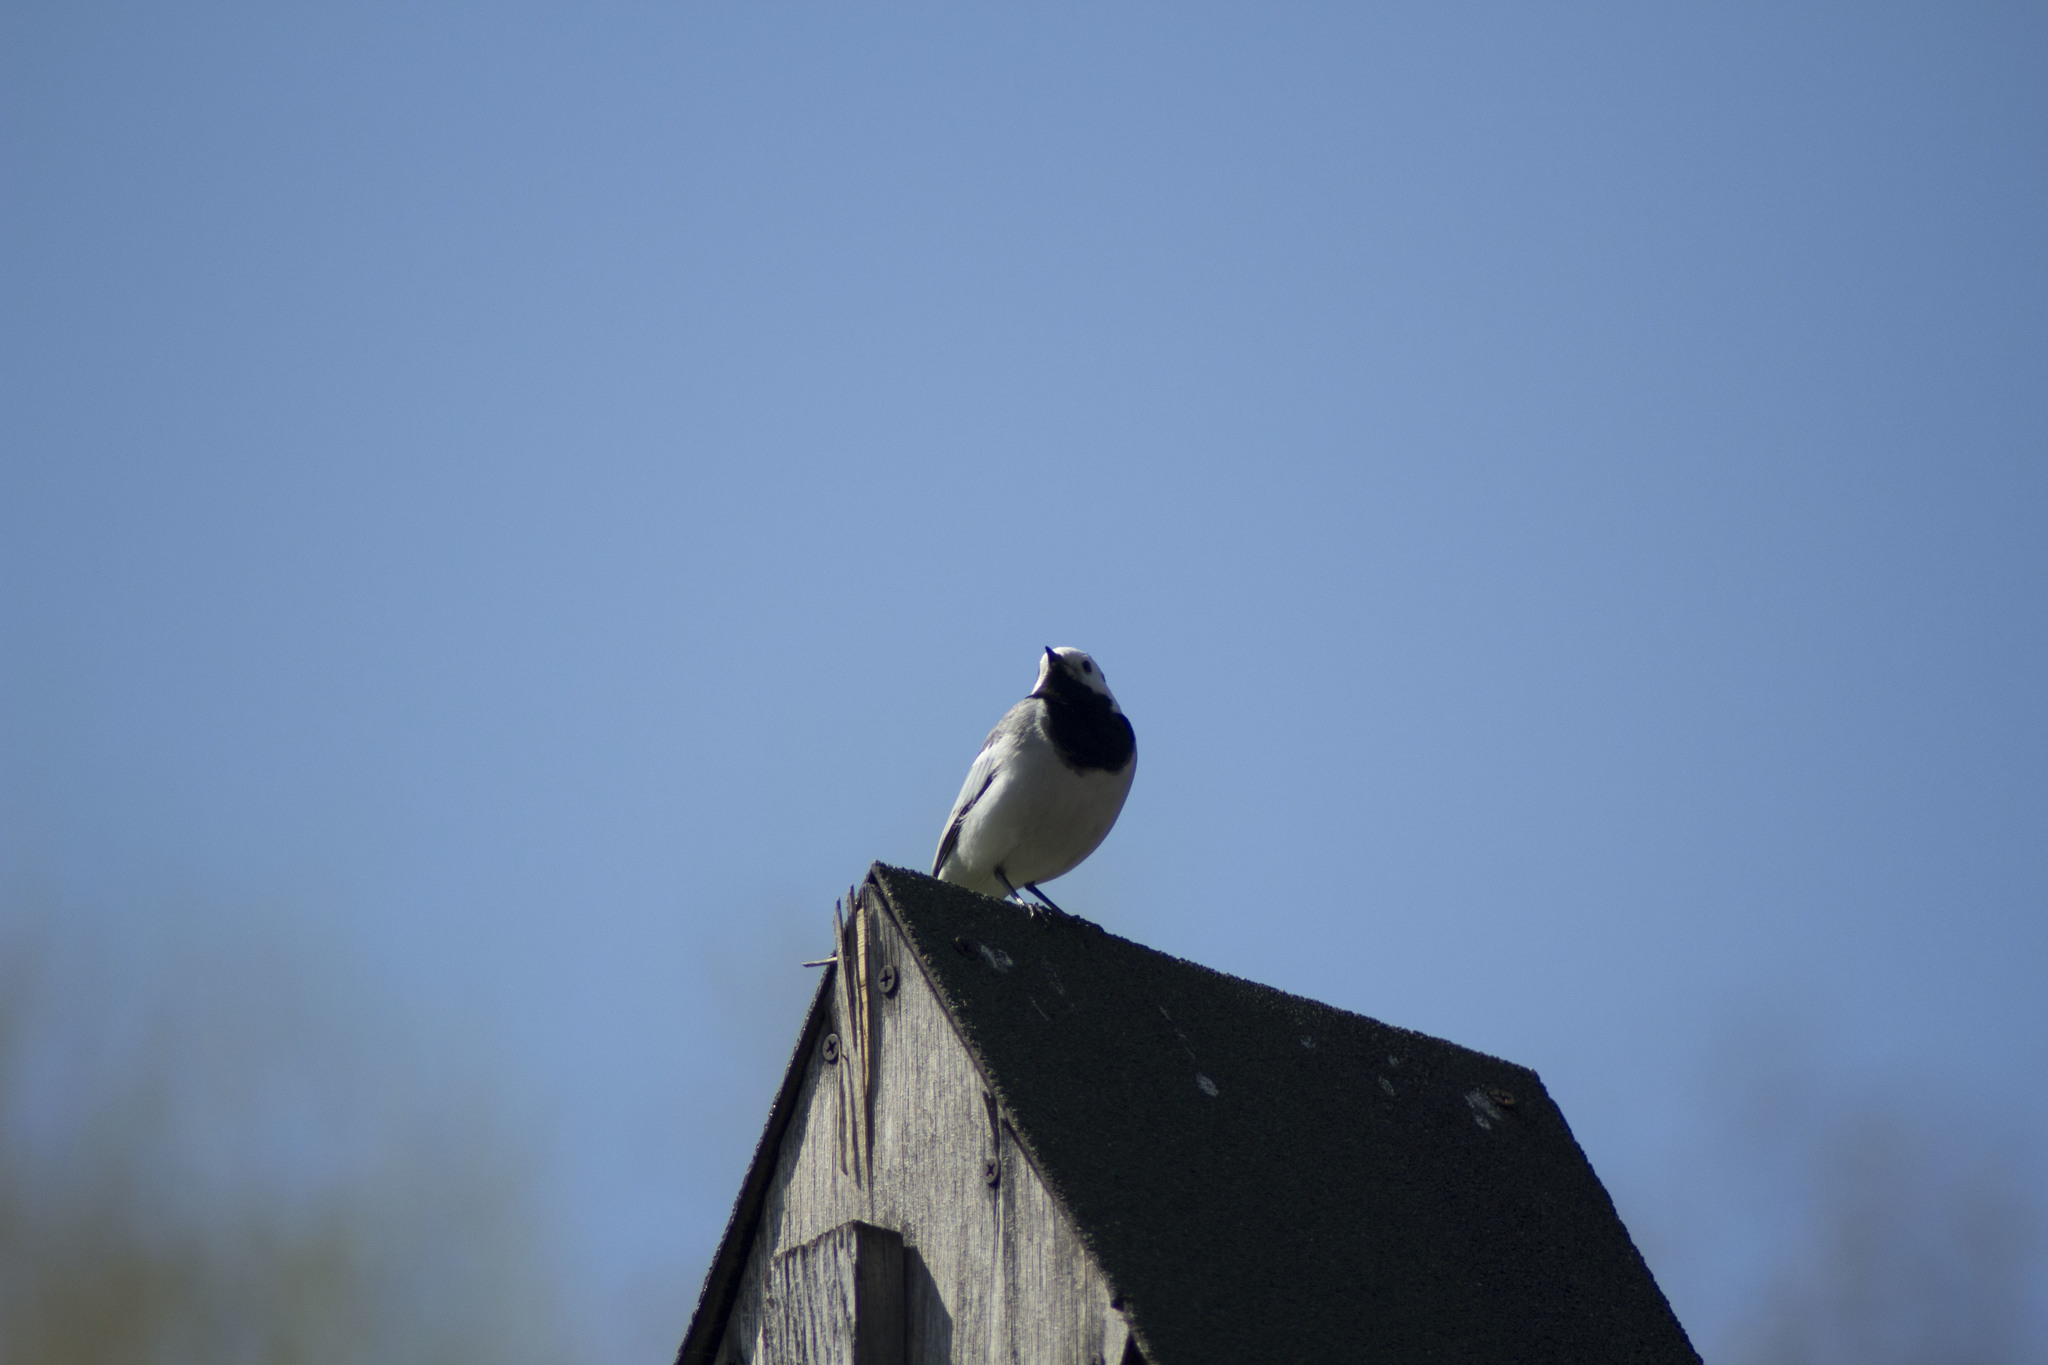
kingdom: Animalia
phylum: Chordata
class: Aves
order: Passeriformes
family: Motacillidae
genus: Motacilla
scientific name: Motacilla alba
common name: White wagtail
